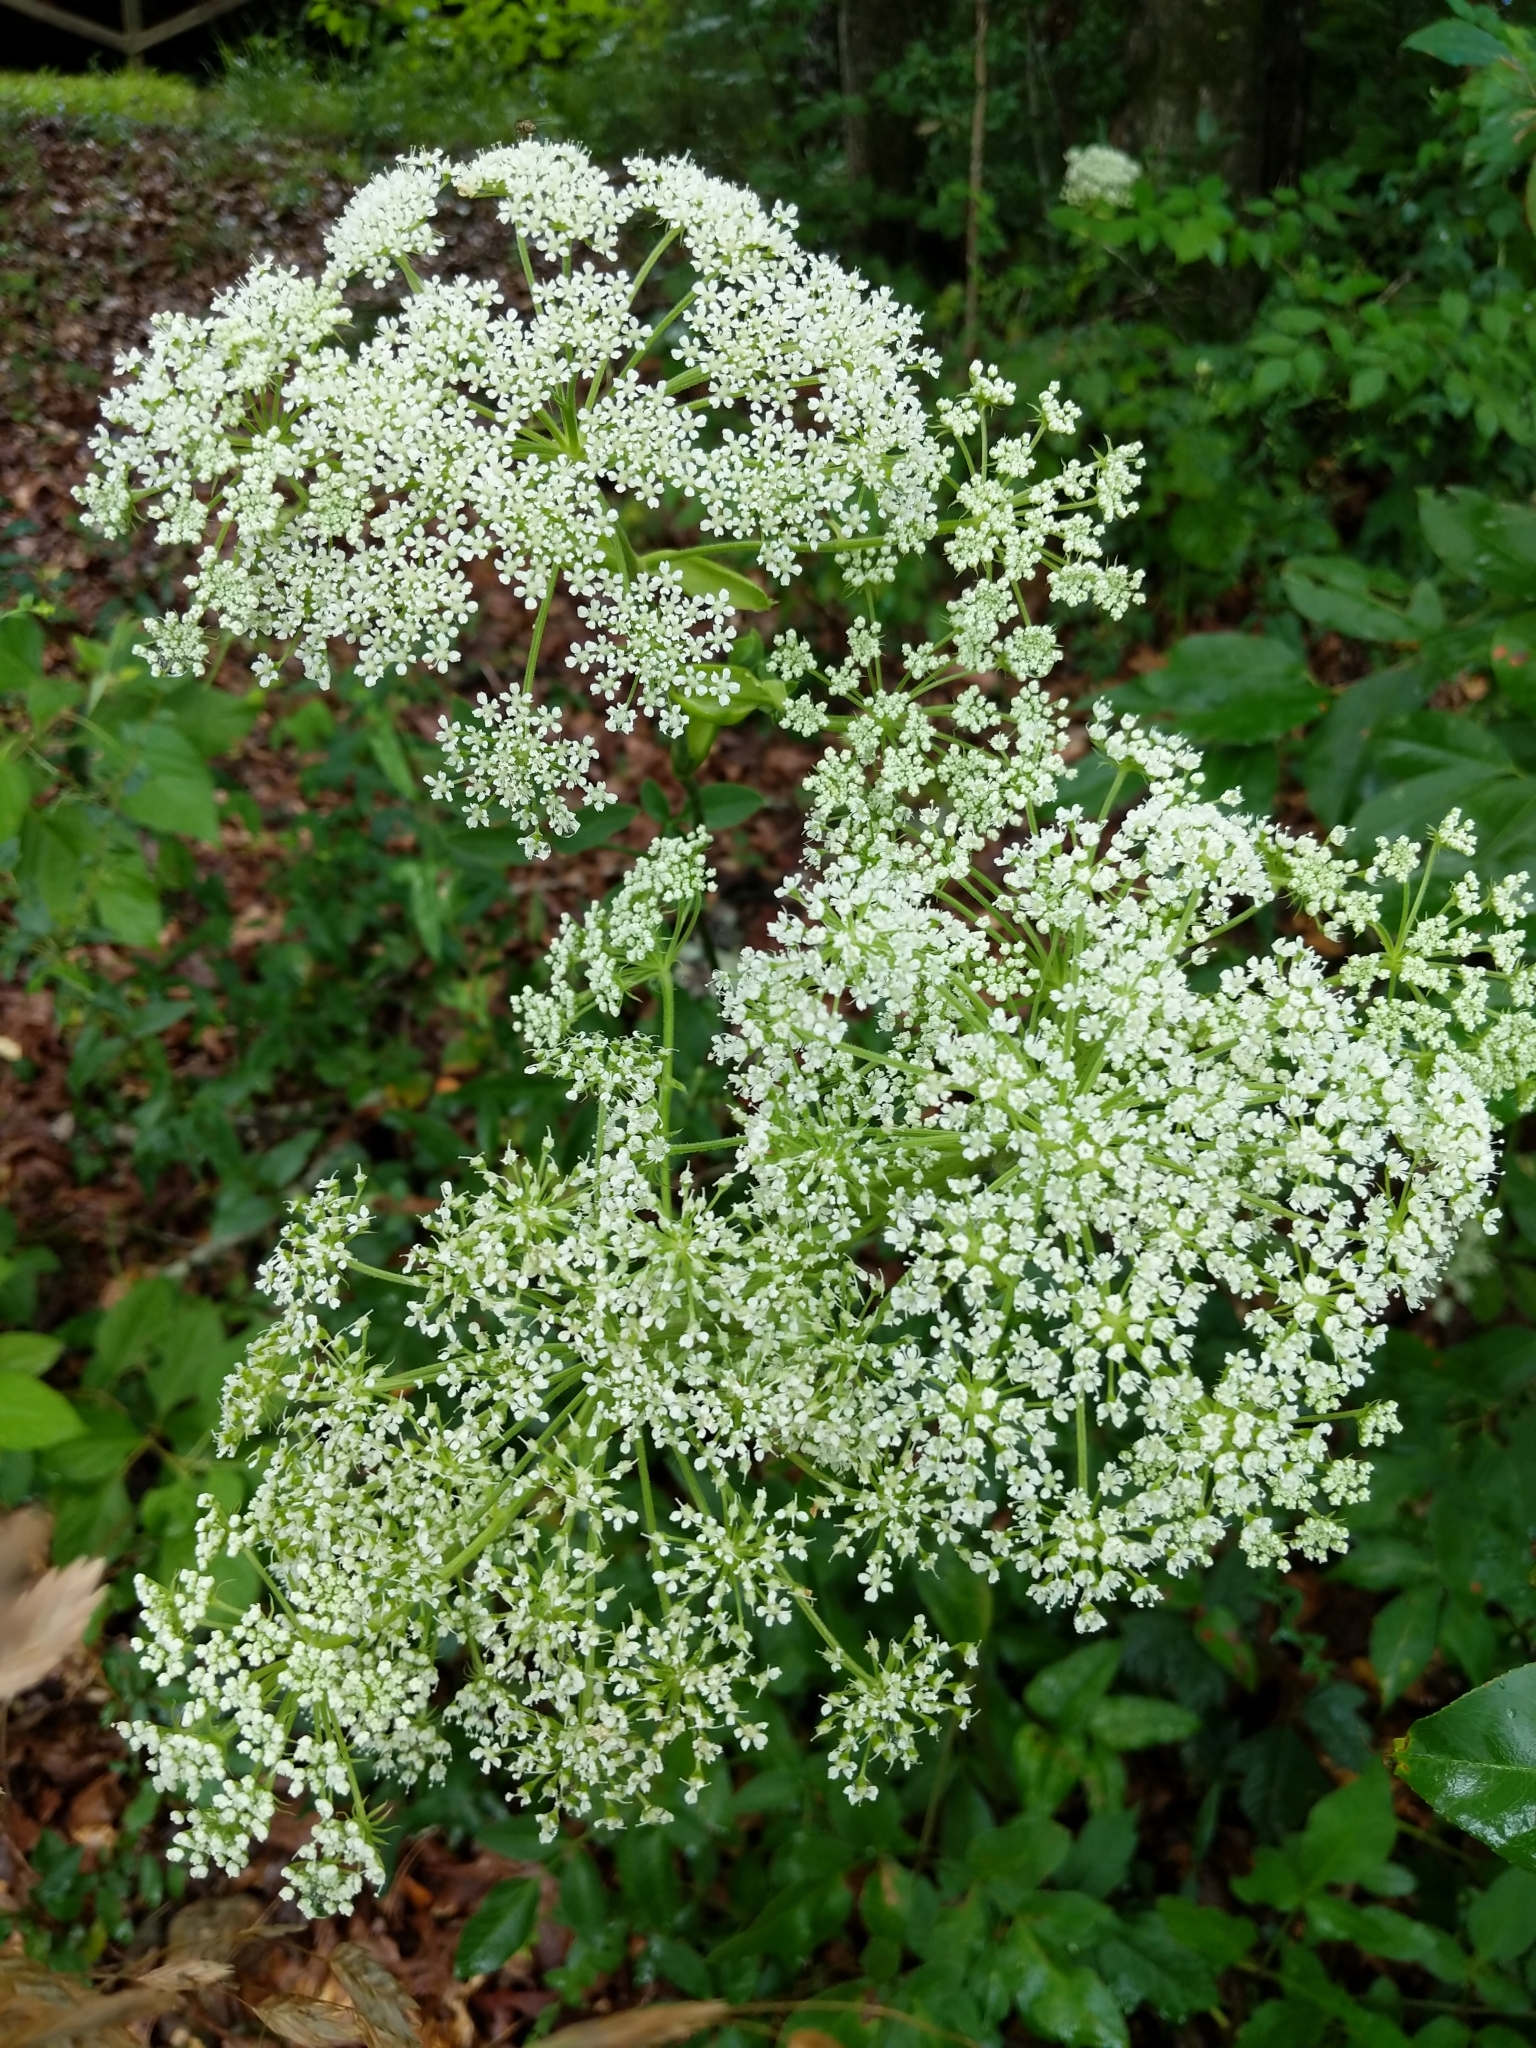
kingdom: Plantae
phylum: Tracheophyta
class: Magnoliopsida
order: Apiales
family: Apiaceae
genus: Angelica
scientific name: Angelica venenosa
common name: Hairy angelica
